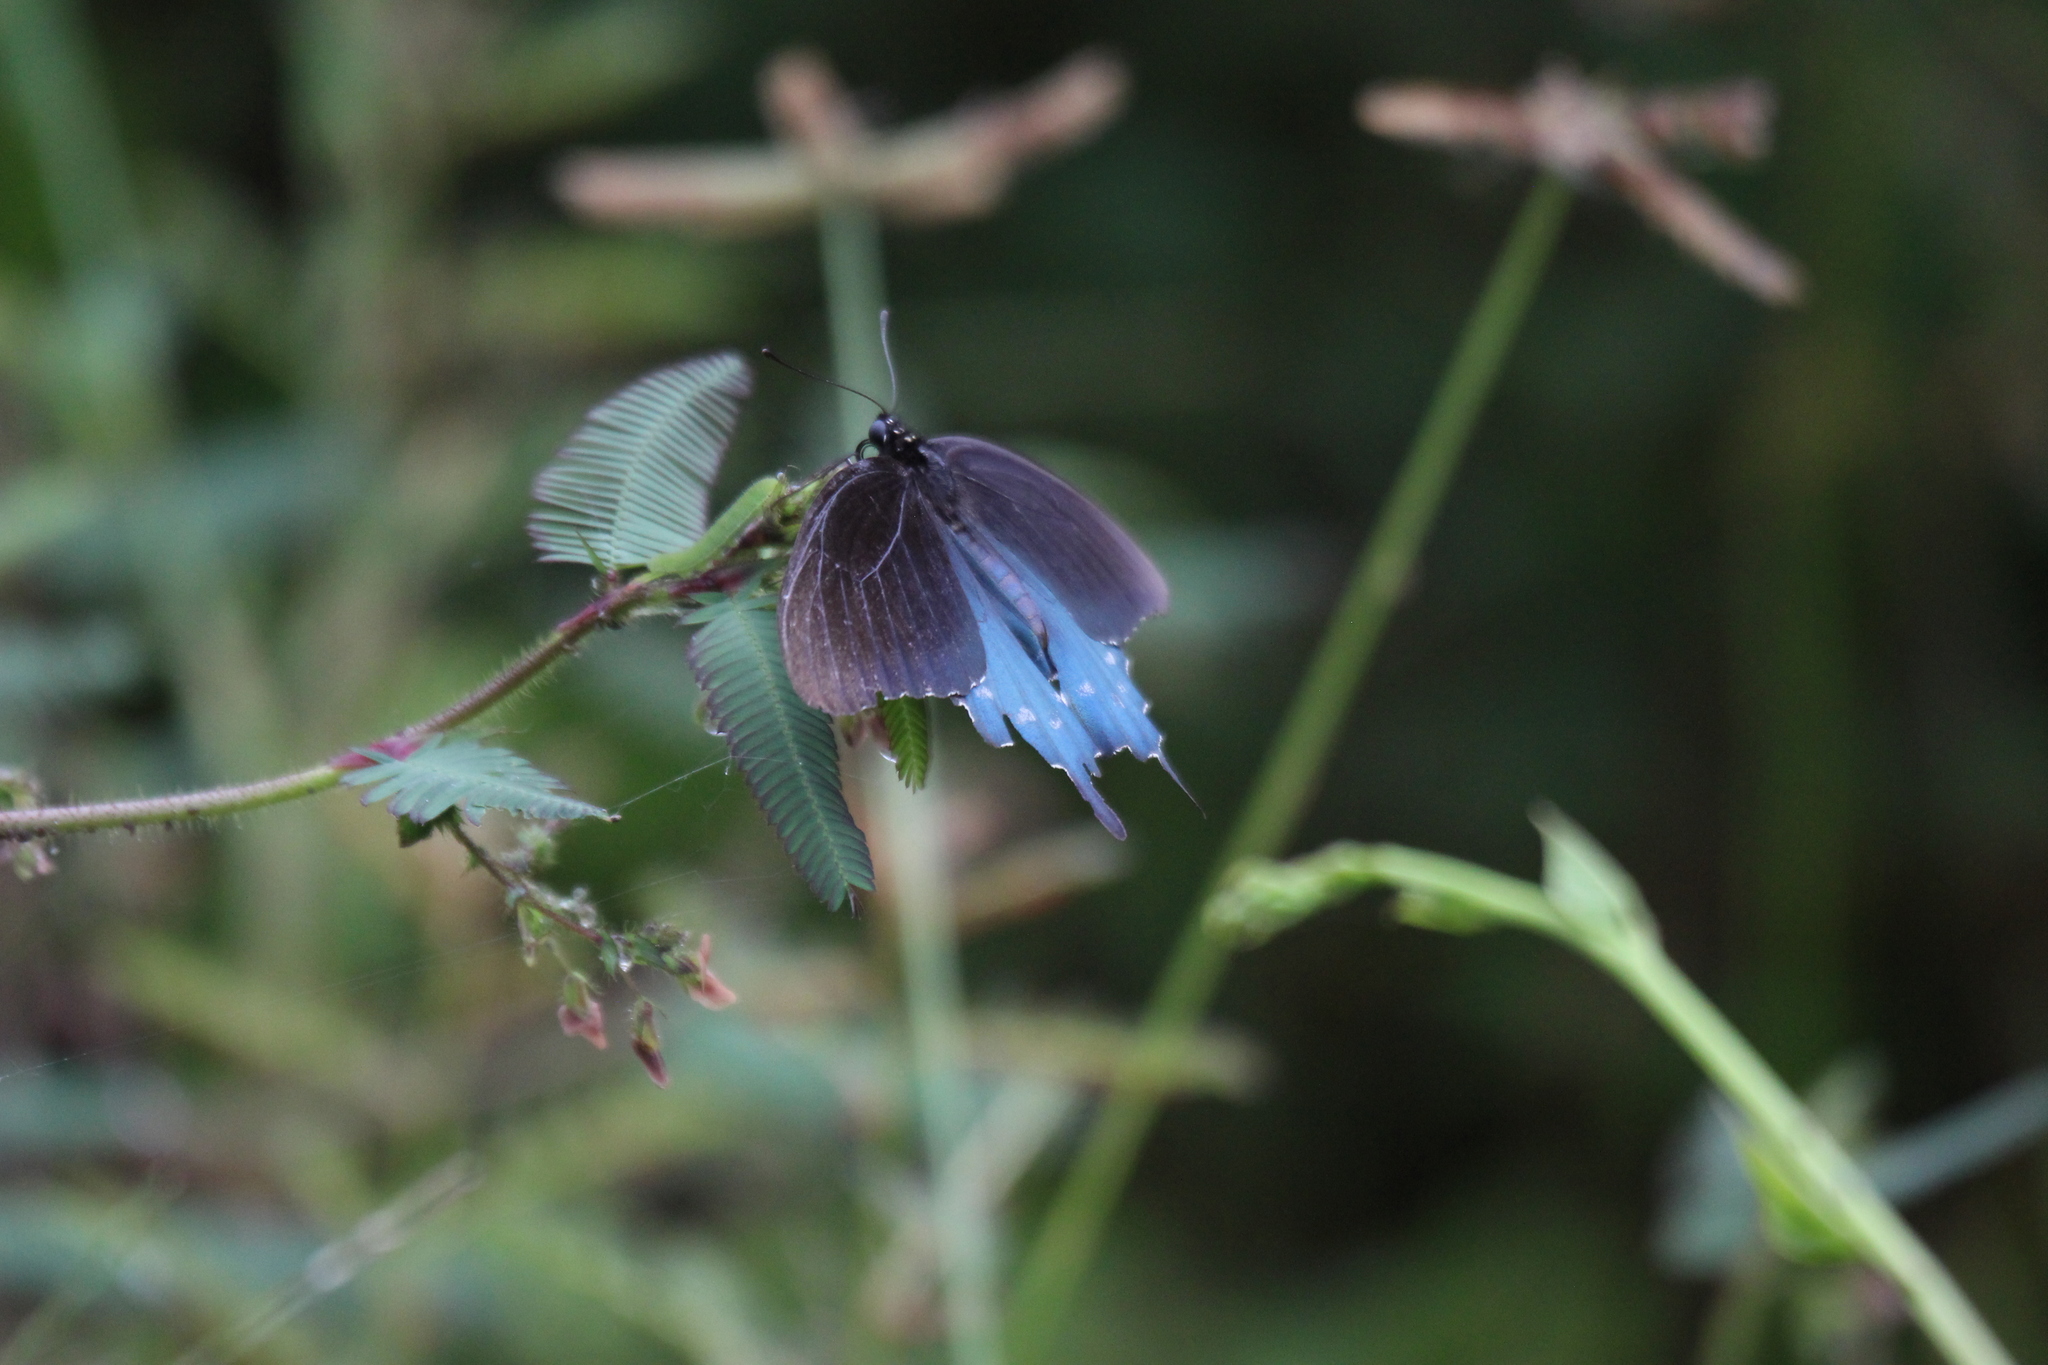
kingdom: Animalia
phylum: Arthropoda
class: Insecta
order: Lepidoptera
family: Papilionidae
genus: Battus
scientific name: Battus philenor
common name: Pipevine swallowtail
